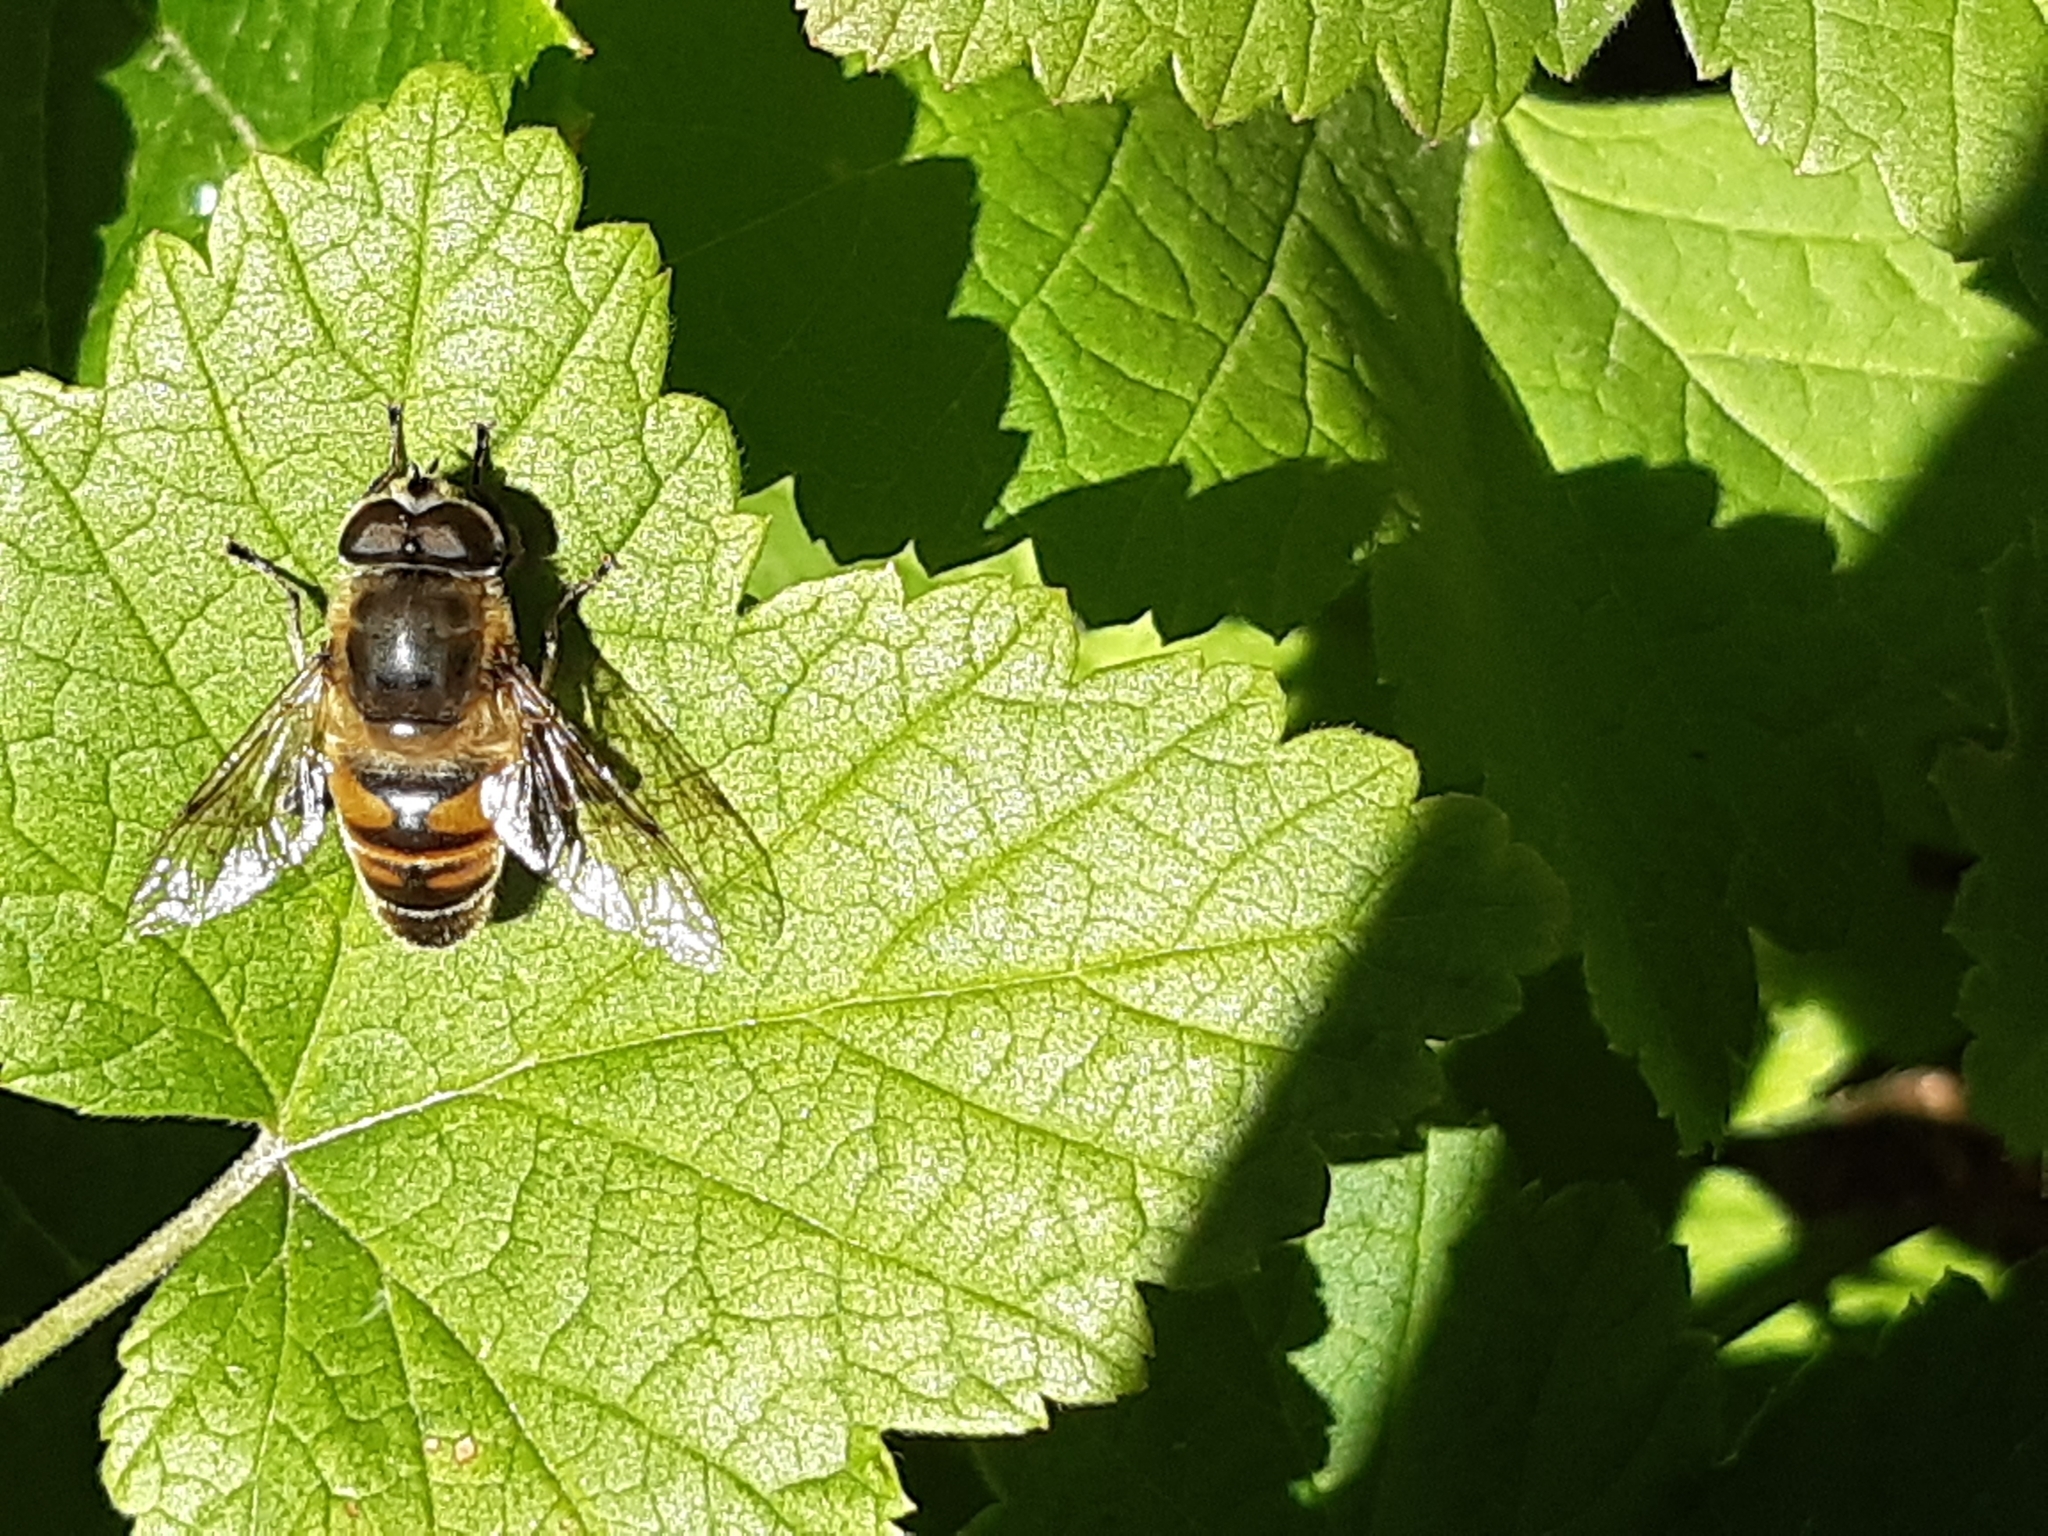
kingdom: Animalia
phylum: Arthropoda
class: Insecta
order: Diptera
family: Syrphidae
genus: Eristalis
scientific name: Eristalis tenax
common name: Drone fly
